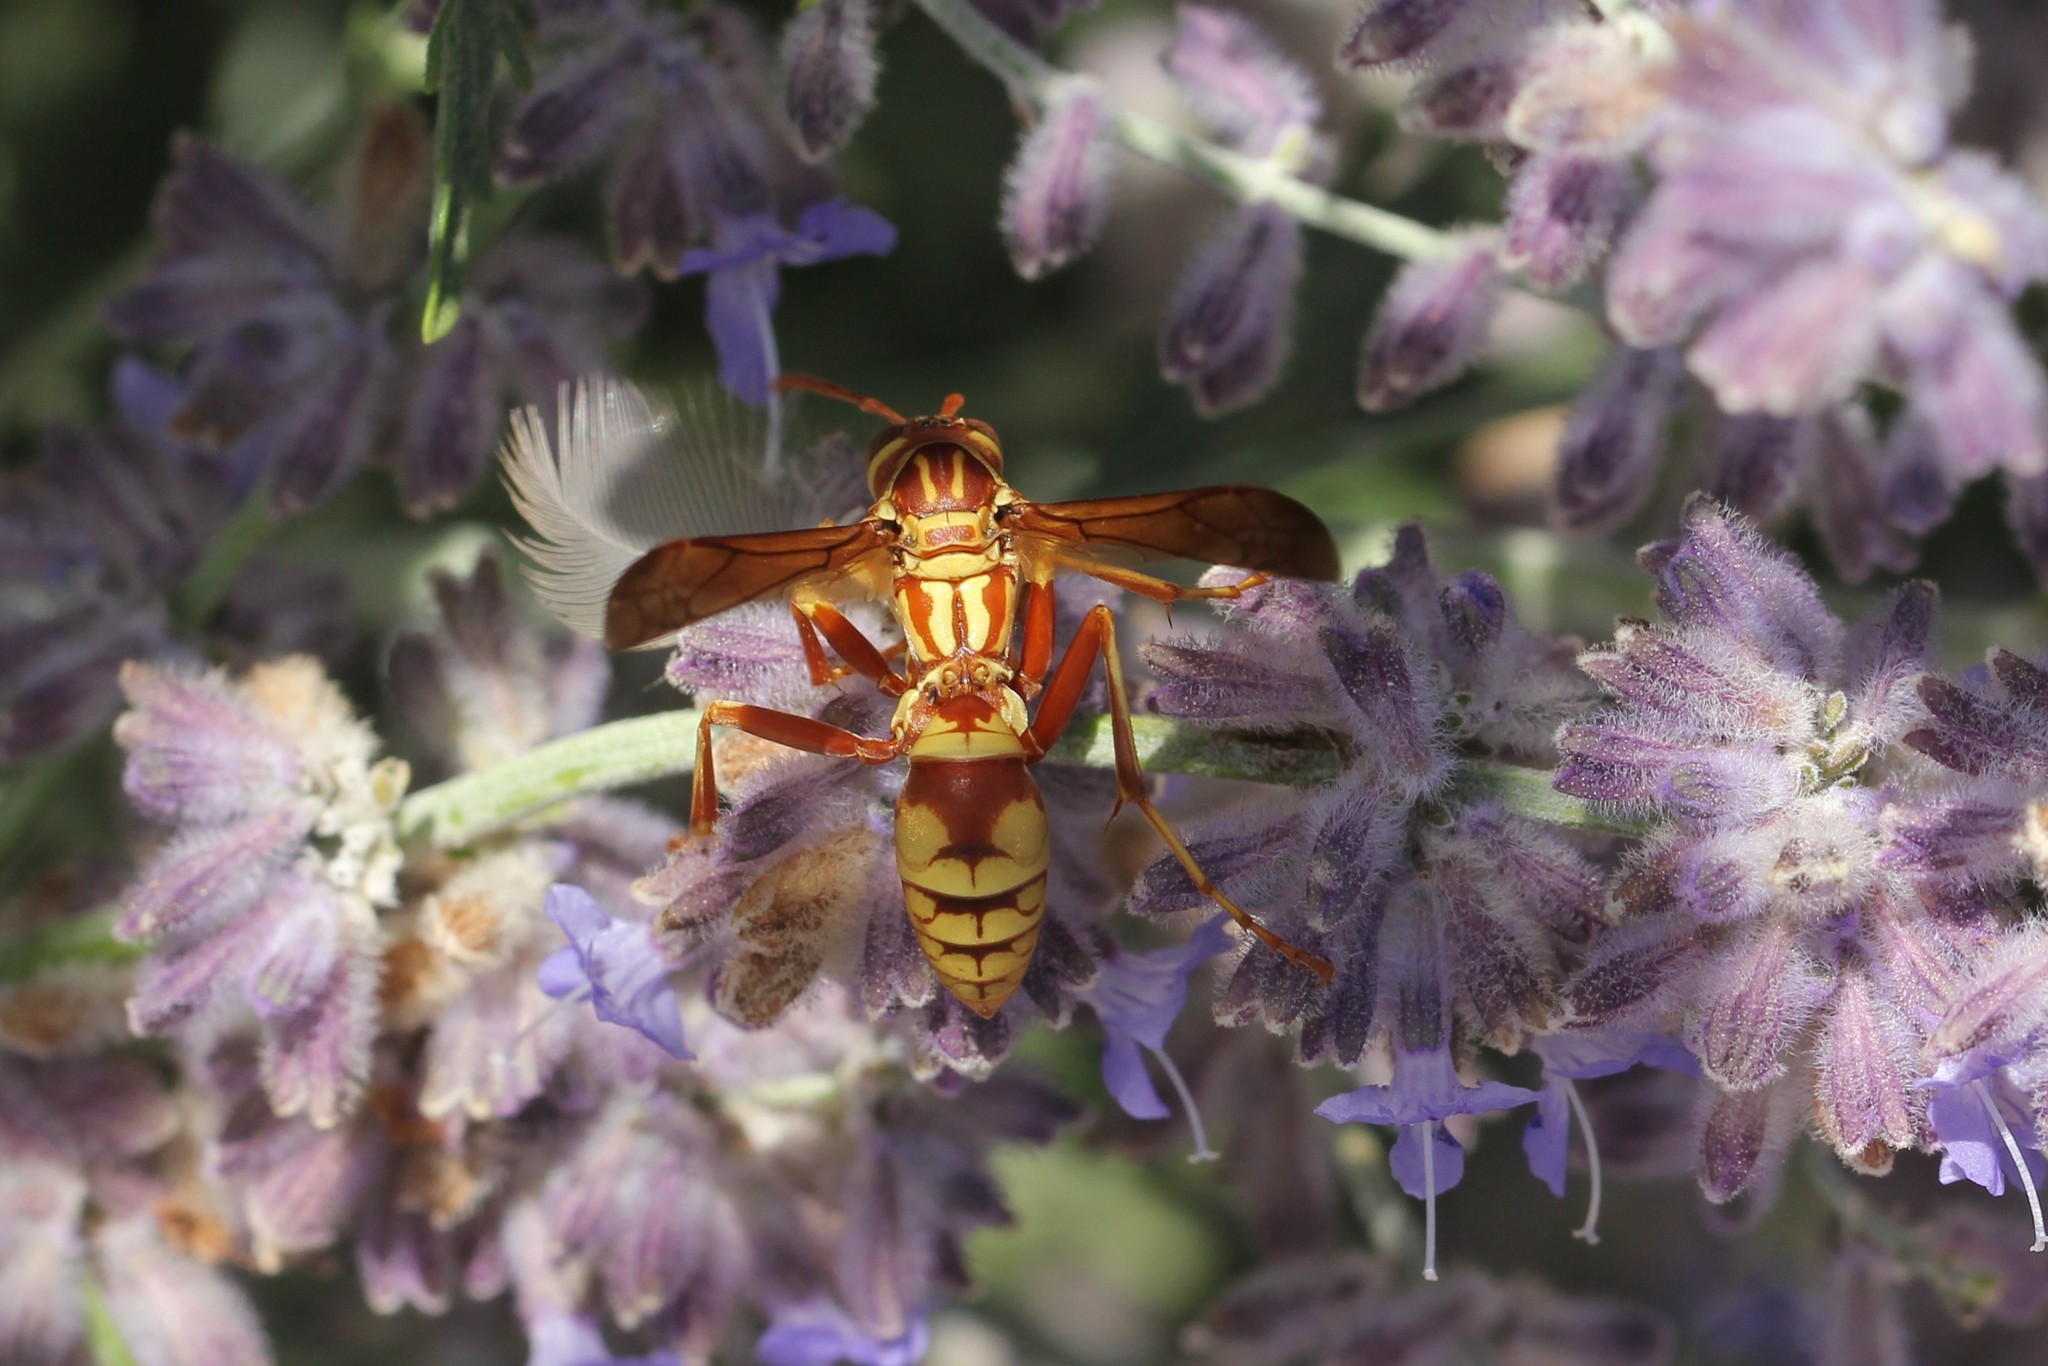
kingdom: Animalia
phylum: Arthropoda
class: Insecta
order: Hymenoptera
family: Eumenidae
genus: Polistes
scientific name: Polistes apachus
